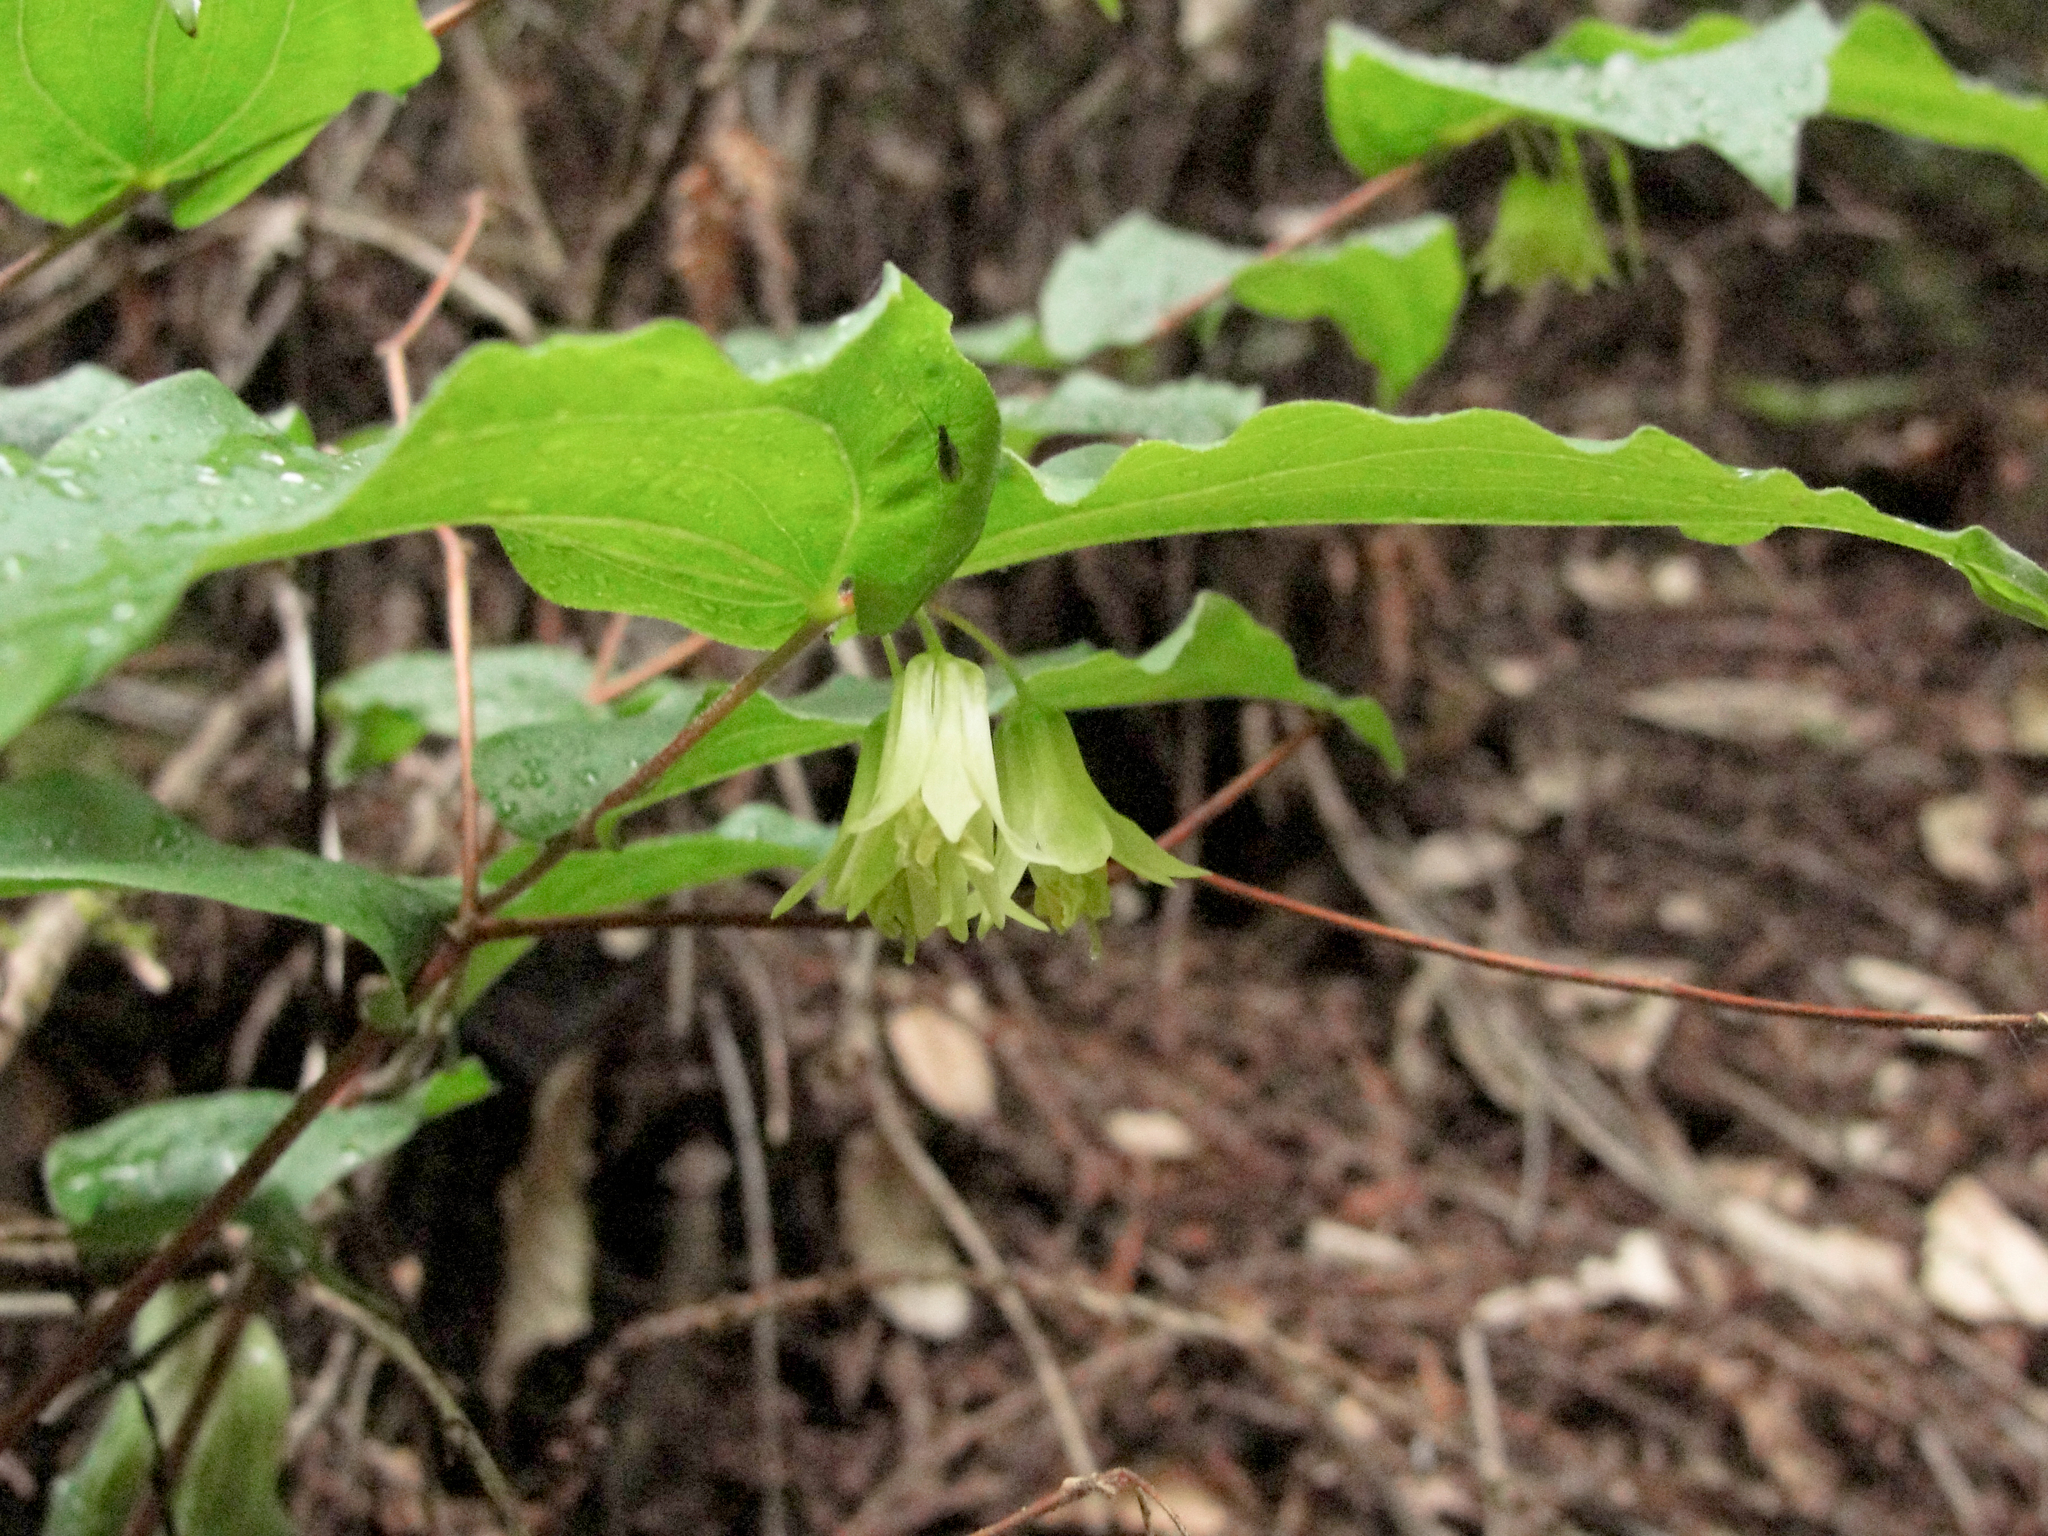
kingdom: Plantae
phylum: Tracheophyta
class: Liliopsida
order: Liliales
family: Liliaceae
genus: Prosartes
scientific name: Prosartes hookeri
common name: Fairy-bells
